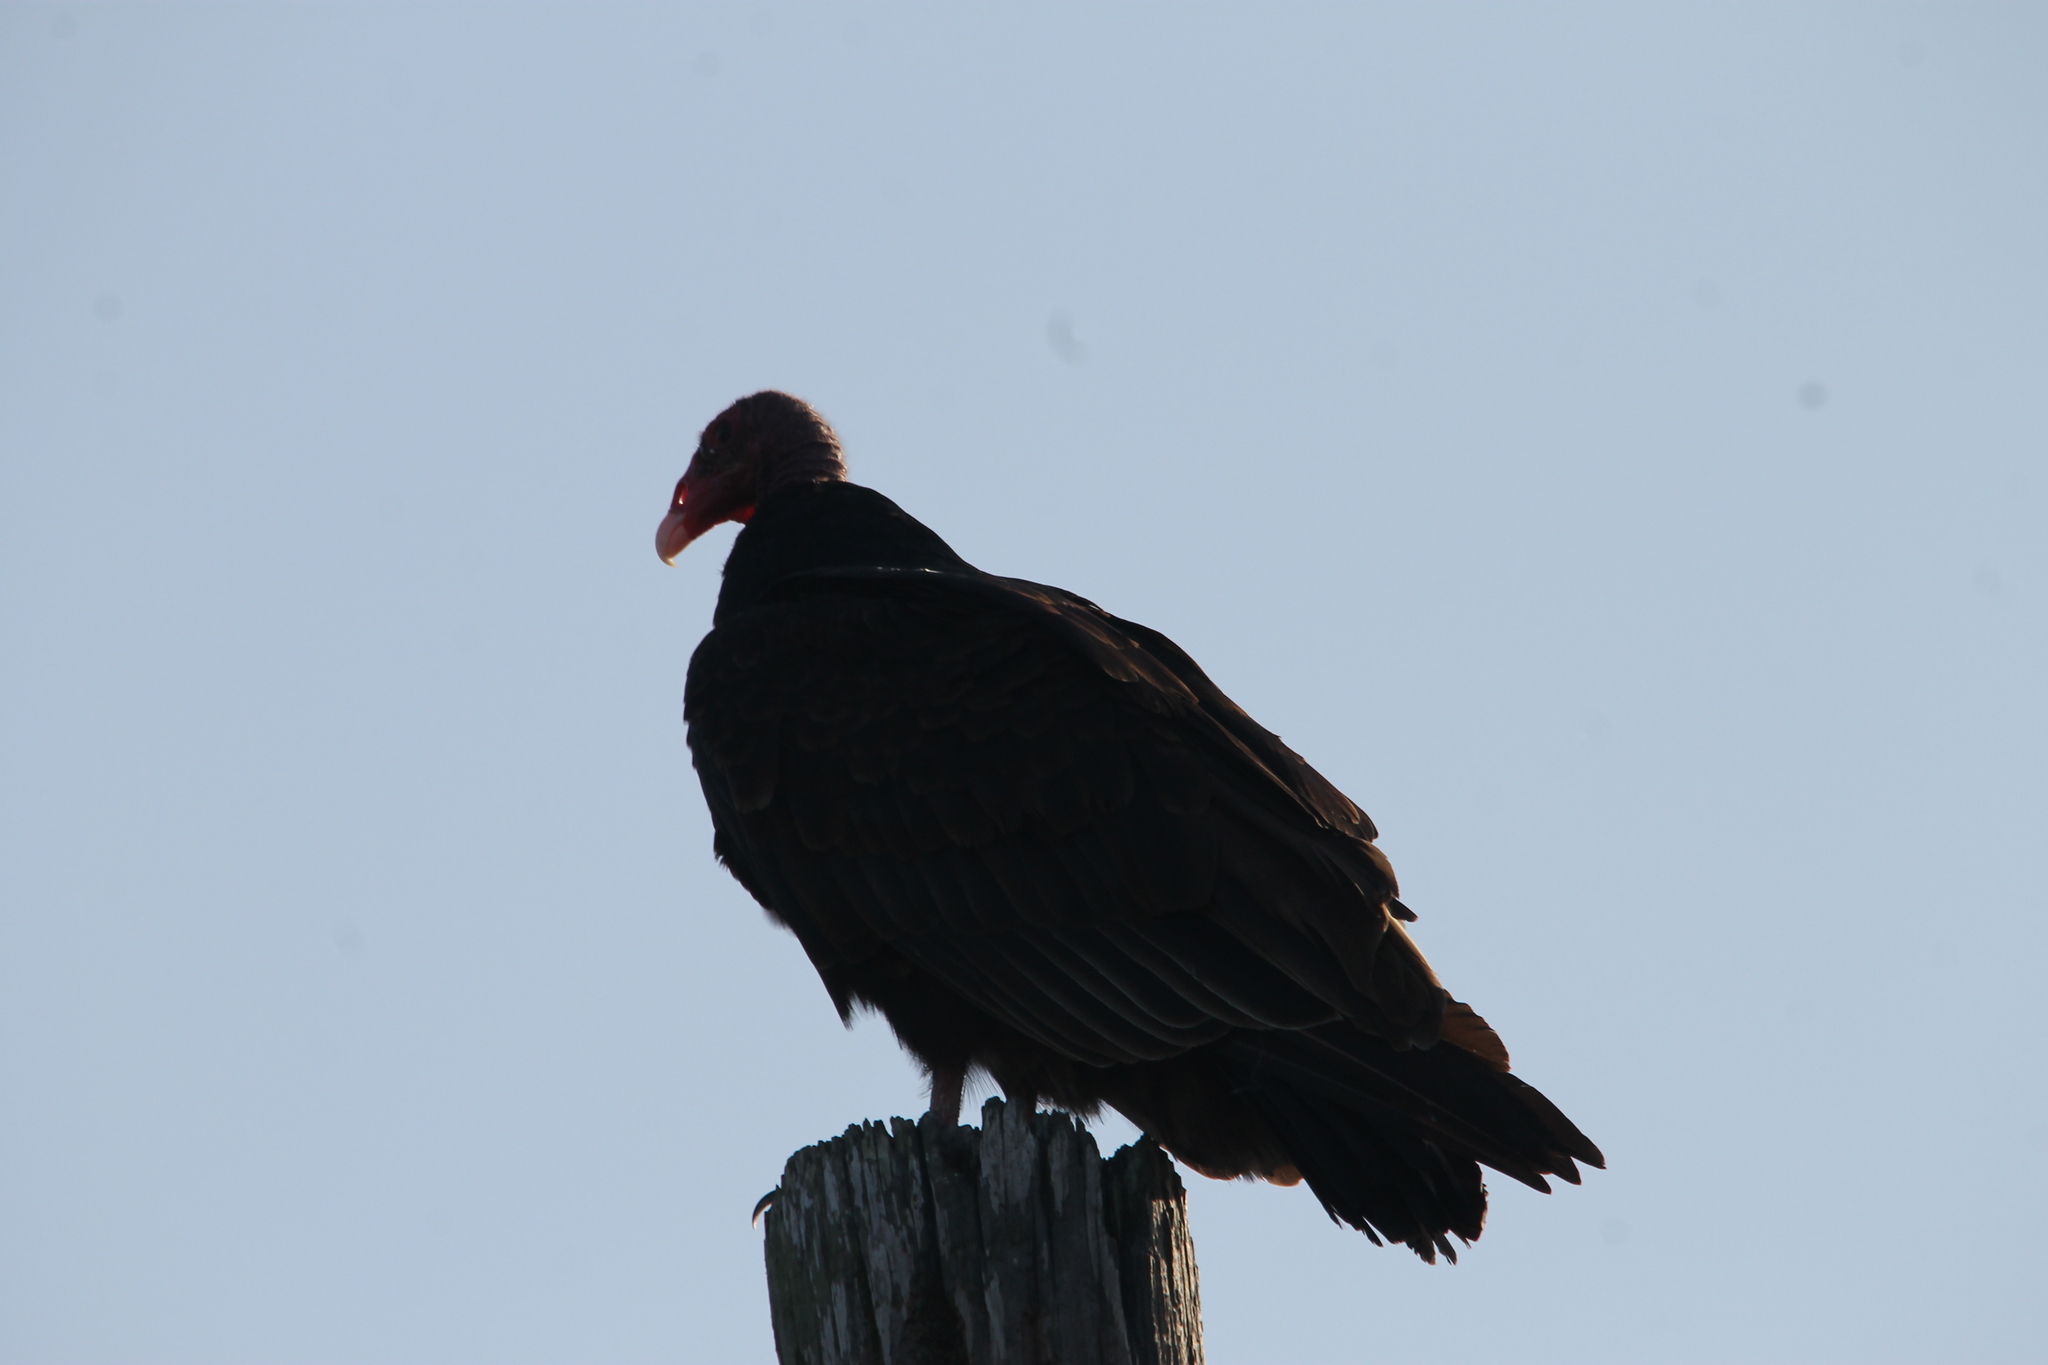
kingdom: Animalia
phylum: Chordata
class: Aves
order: Accipitriformes
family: Cathartidae
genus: Cathartes
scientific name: Cathartes aura
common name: Turkey vulture
